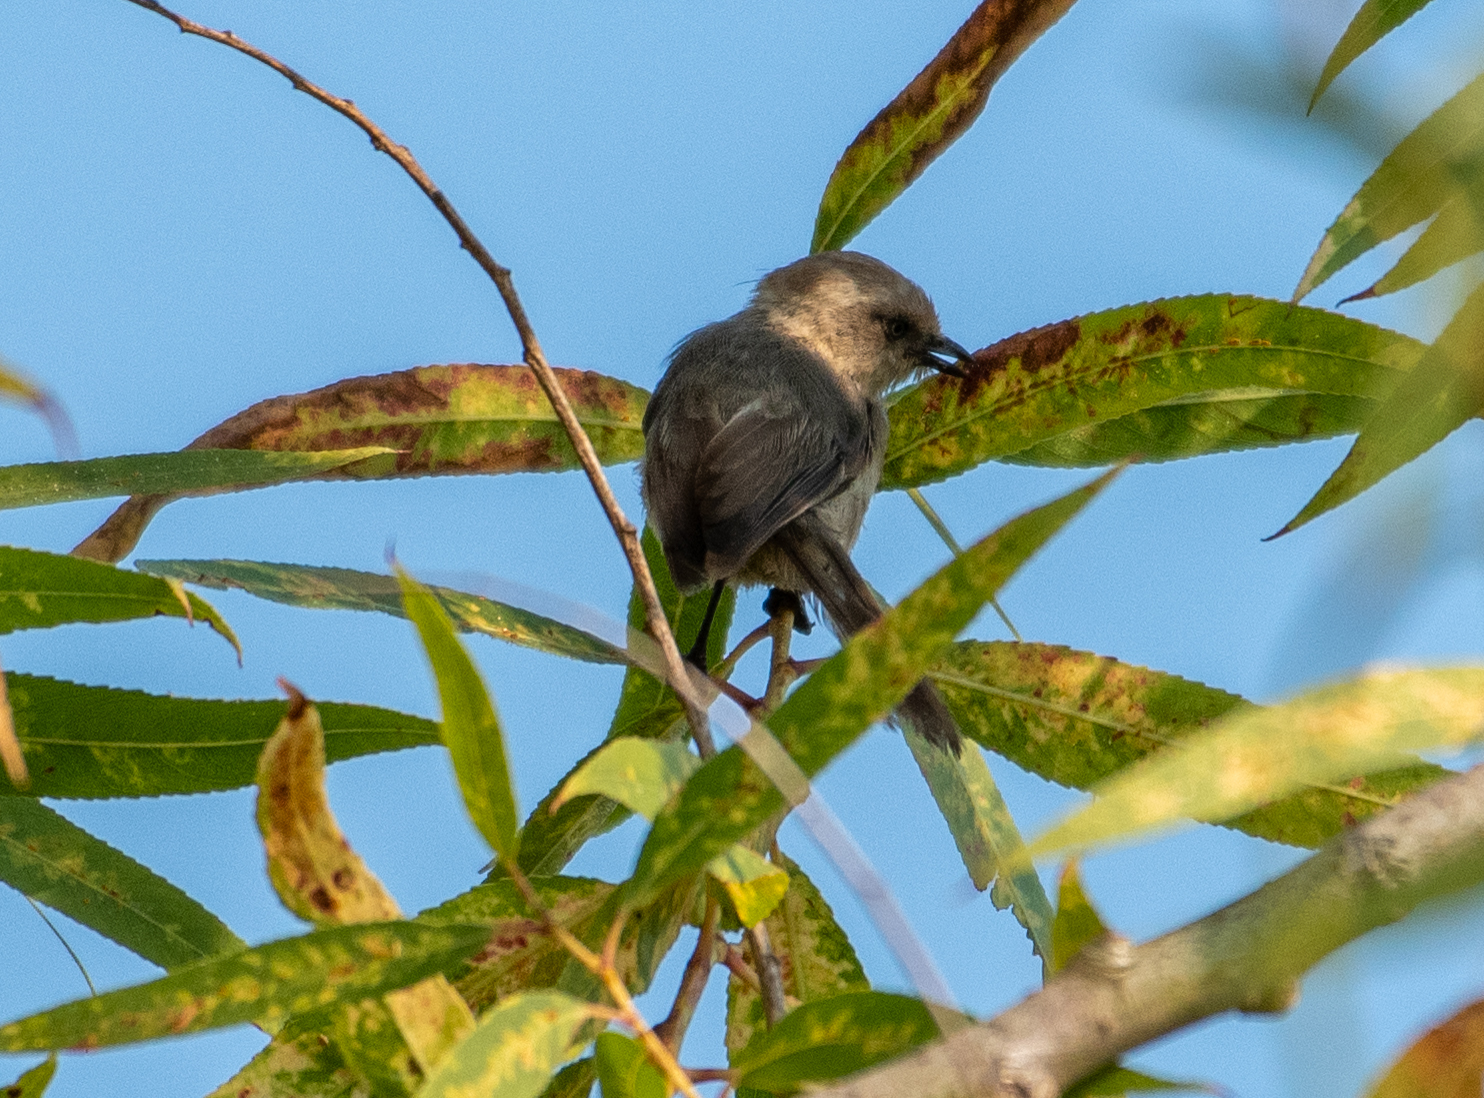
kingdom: Animalia
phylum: Chordata
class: Aves
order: Passeriformes
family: Aegithalidae
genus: Psaltriparus
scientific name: Psaltriparus minimus
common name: American bushtit
